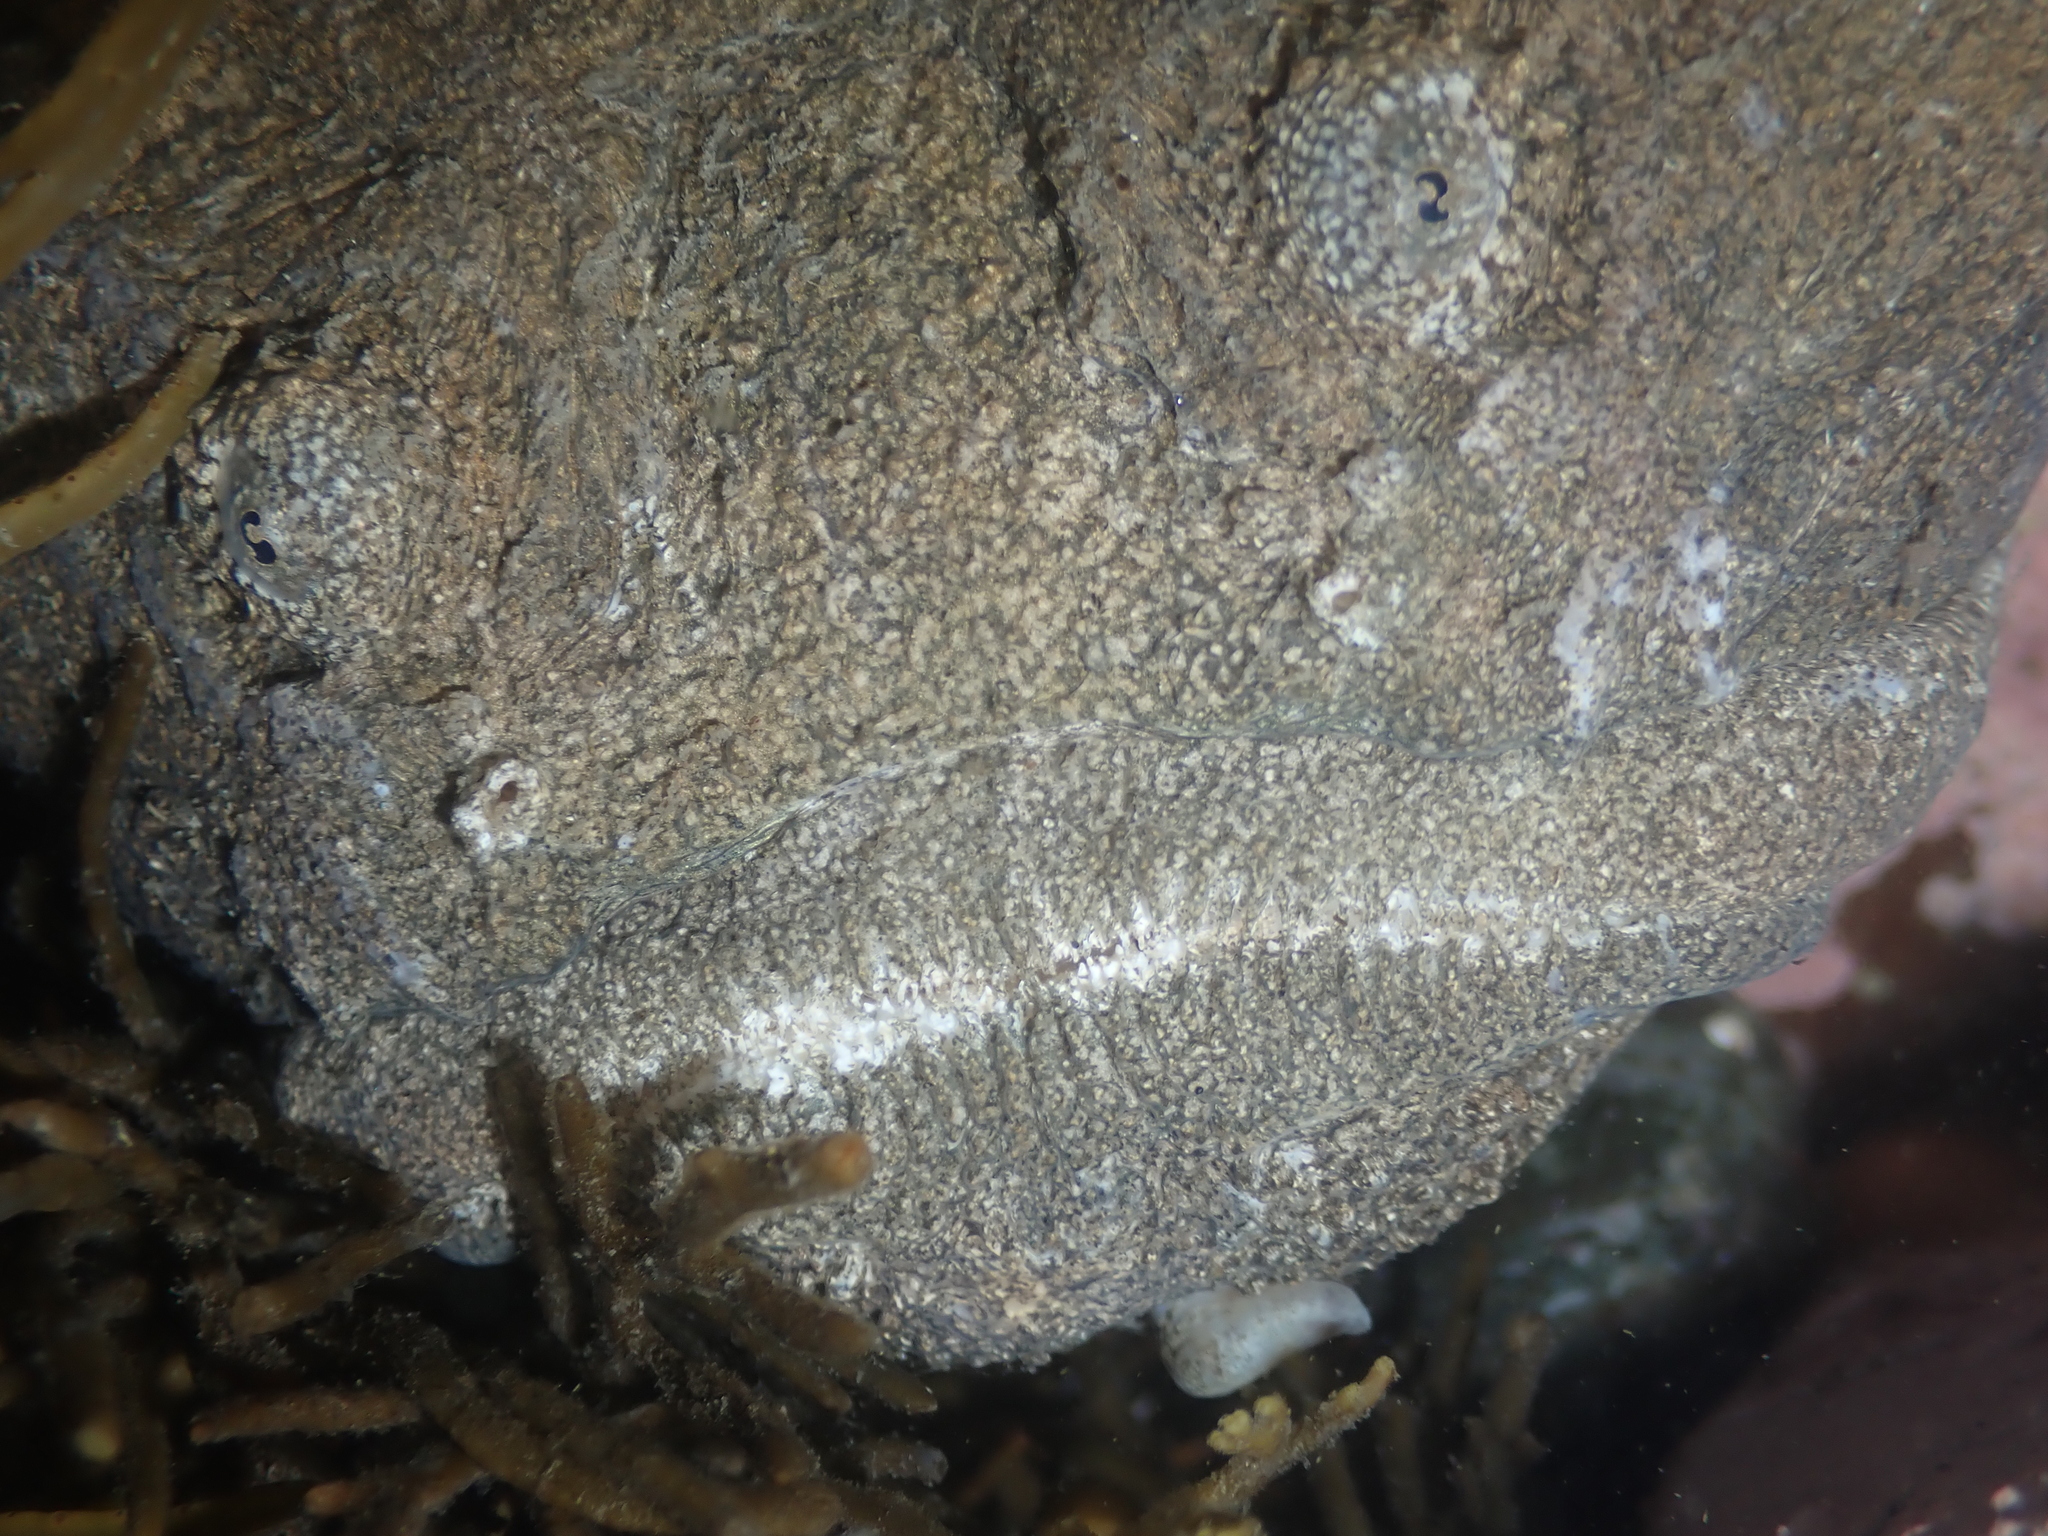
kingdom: Animalia
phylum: Chordata
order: Perciformes
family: Uranoscopidae
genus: Genyagnus
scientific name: Genyagnus monopterygius
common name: Spotted stargazer
